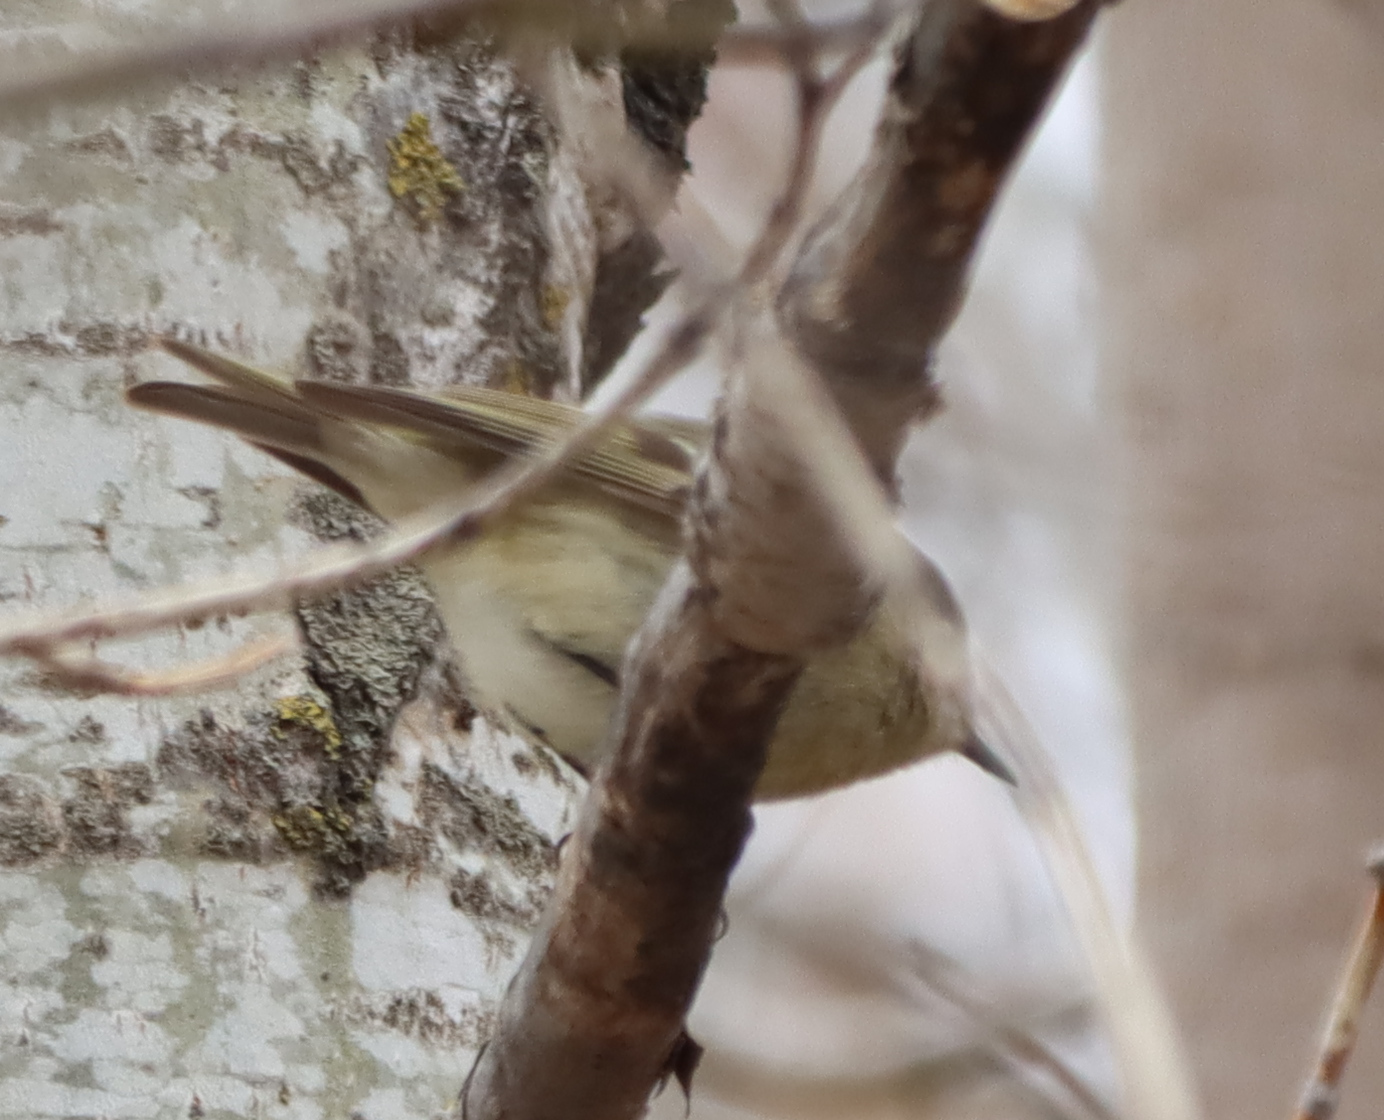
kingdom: Animalia
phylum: Chordata
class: Aves
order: Passeriformes
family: Regulidae
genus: Regulus
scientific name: Regulus calendula
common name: Ruby-crowned kinglet
